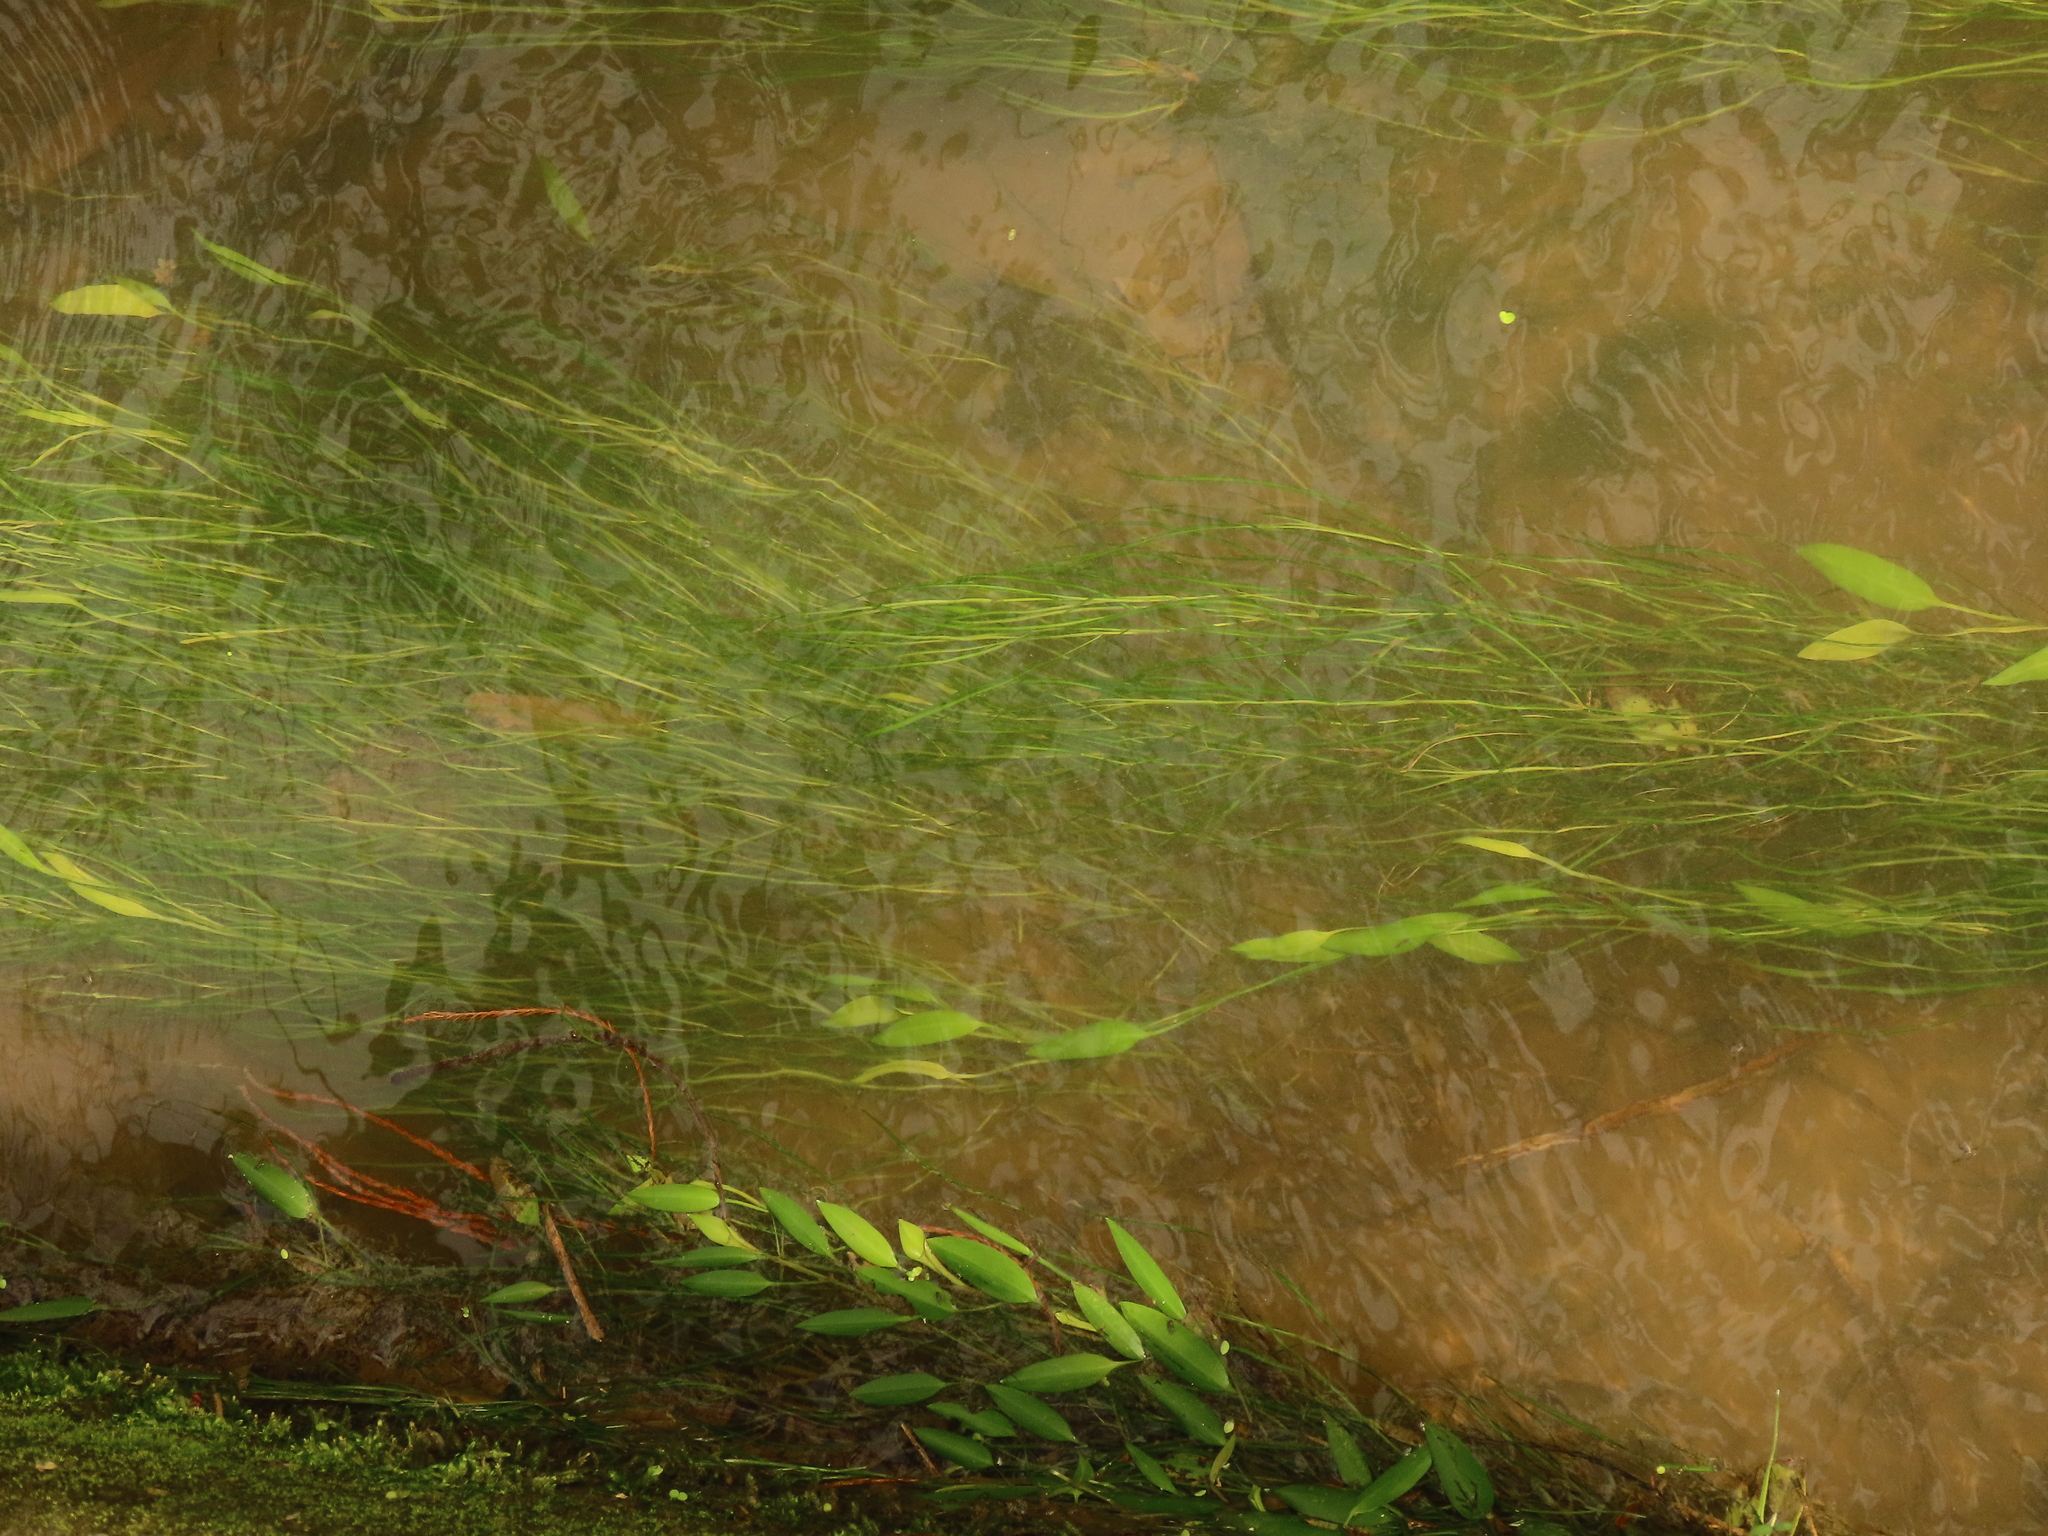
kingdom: Plantae
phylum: Tracheophyta
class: Liliopsida
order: Alismatales
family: Potamogetonaceae
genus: Potamogeton
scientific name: Potamogeton octandrus
